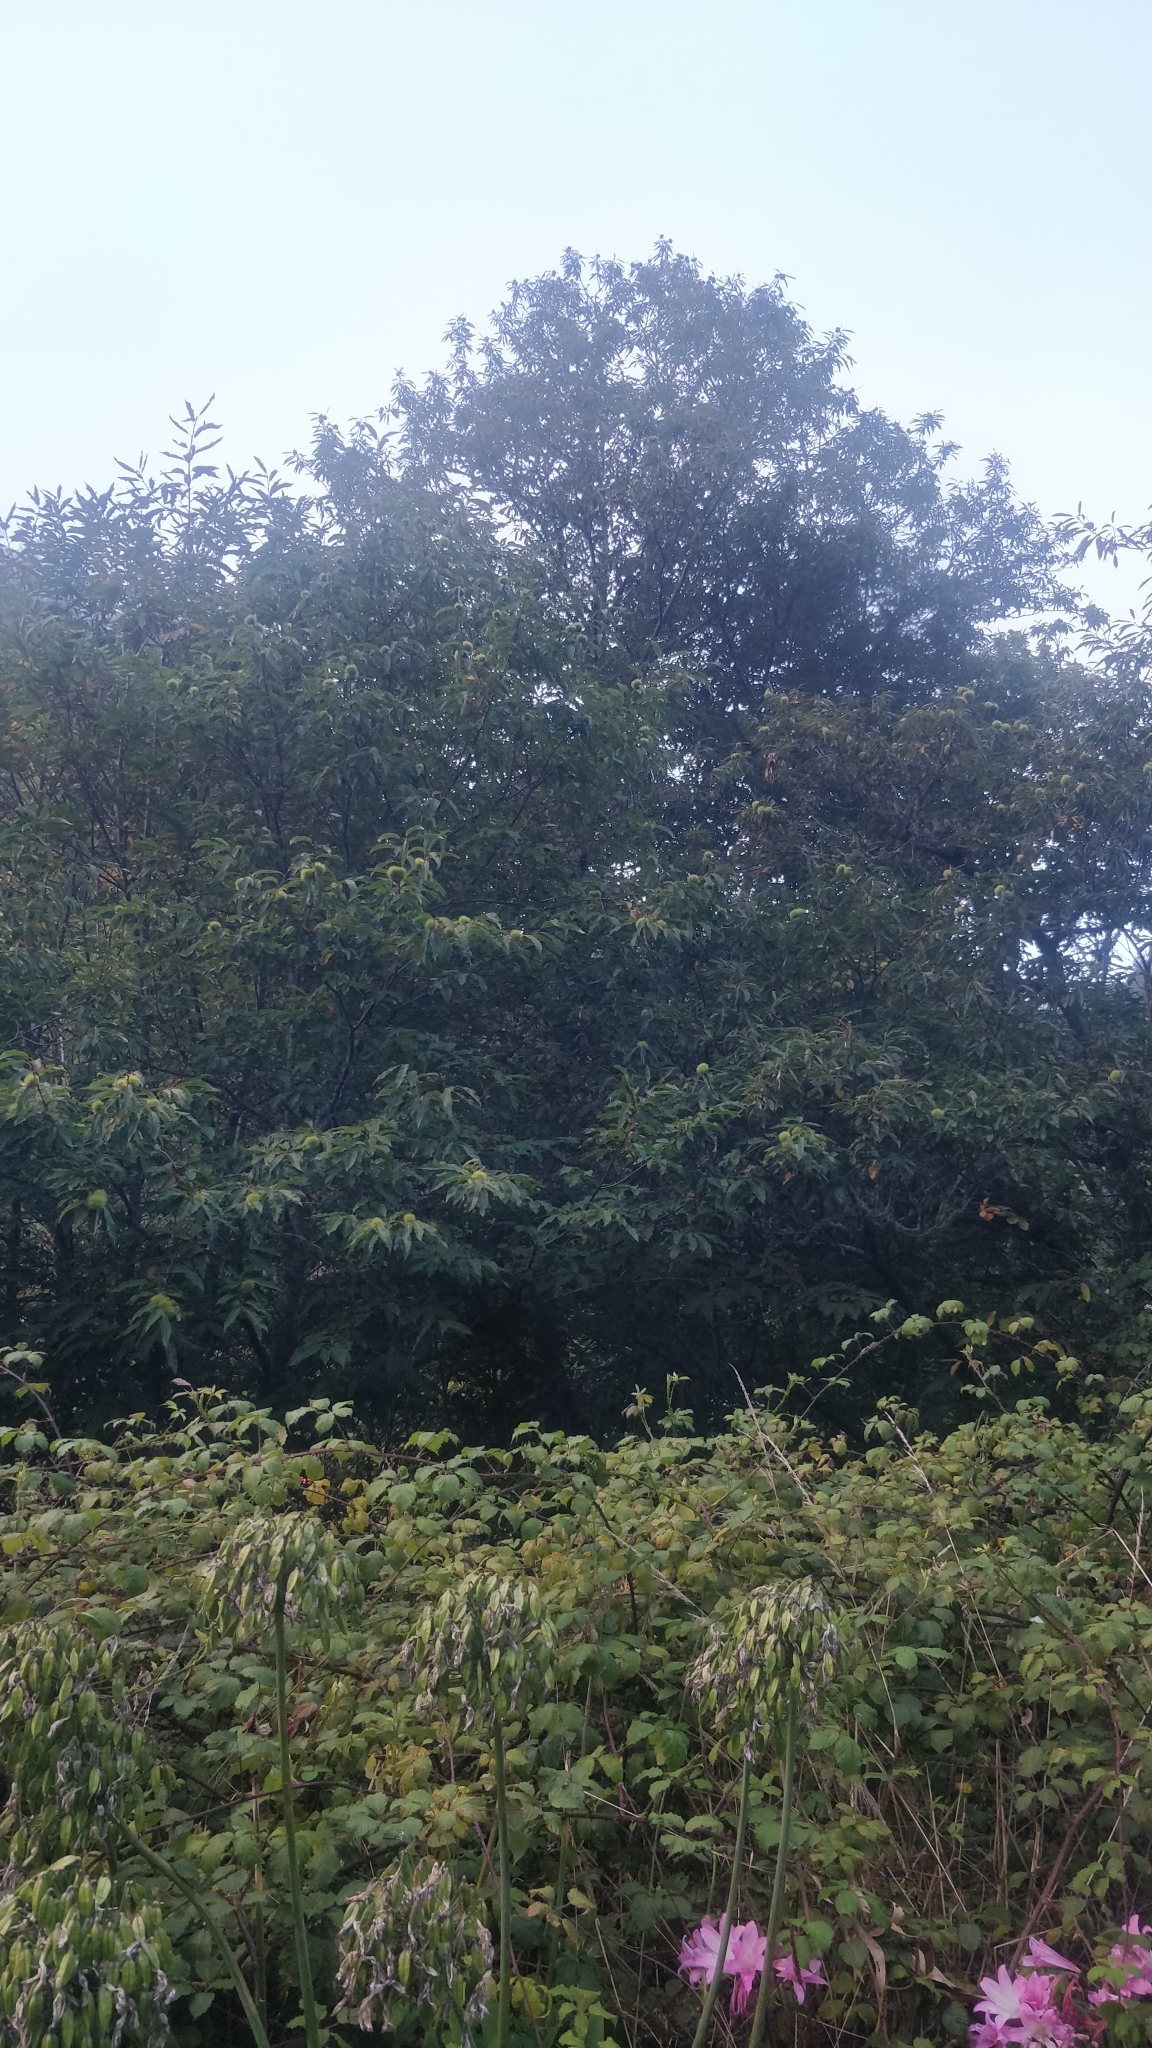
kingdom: Plantae
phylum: Tracheophyta
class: Magnoliopsida
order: Fagales
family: Fagaceae
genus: Castanea
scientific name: Castanea sativa
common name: Sweet chestnut
